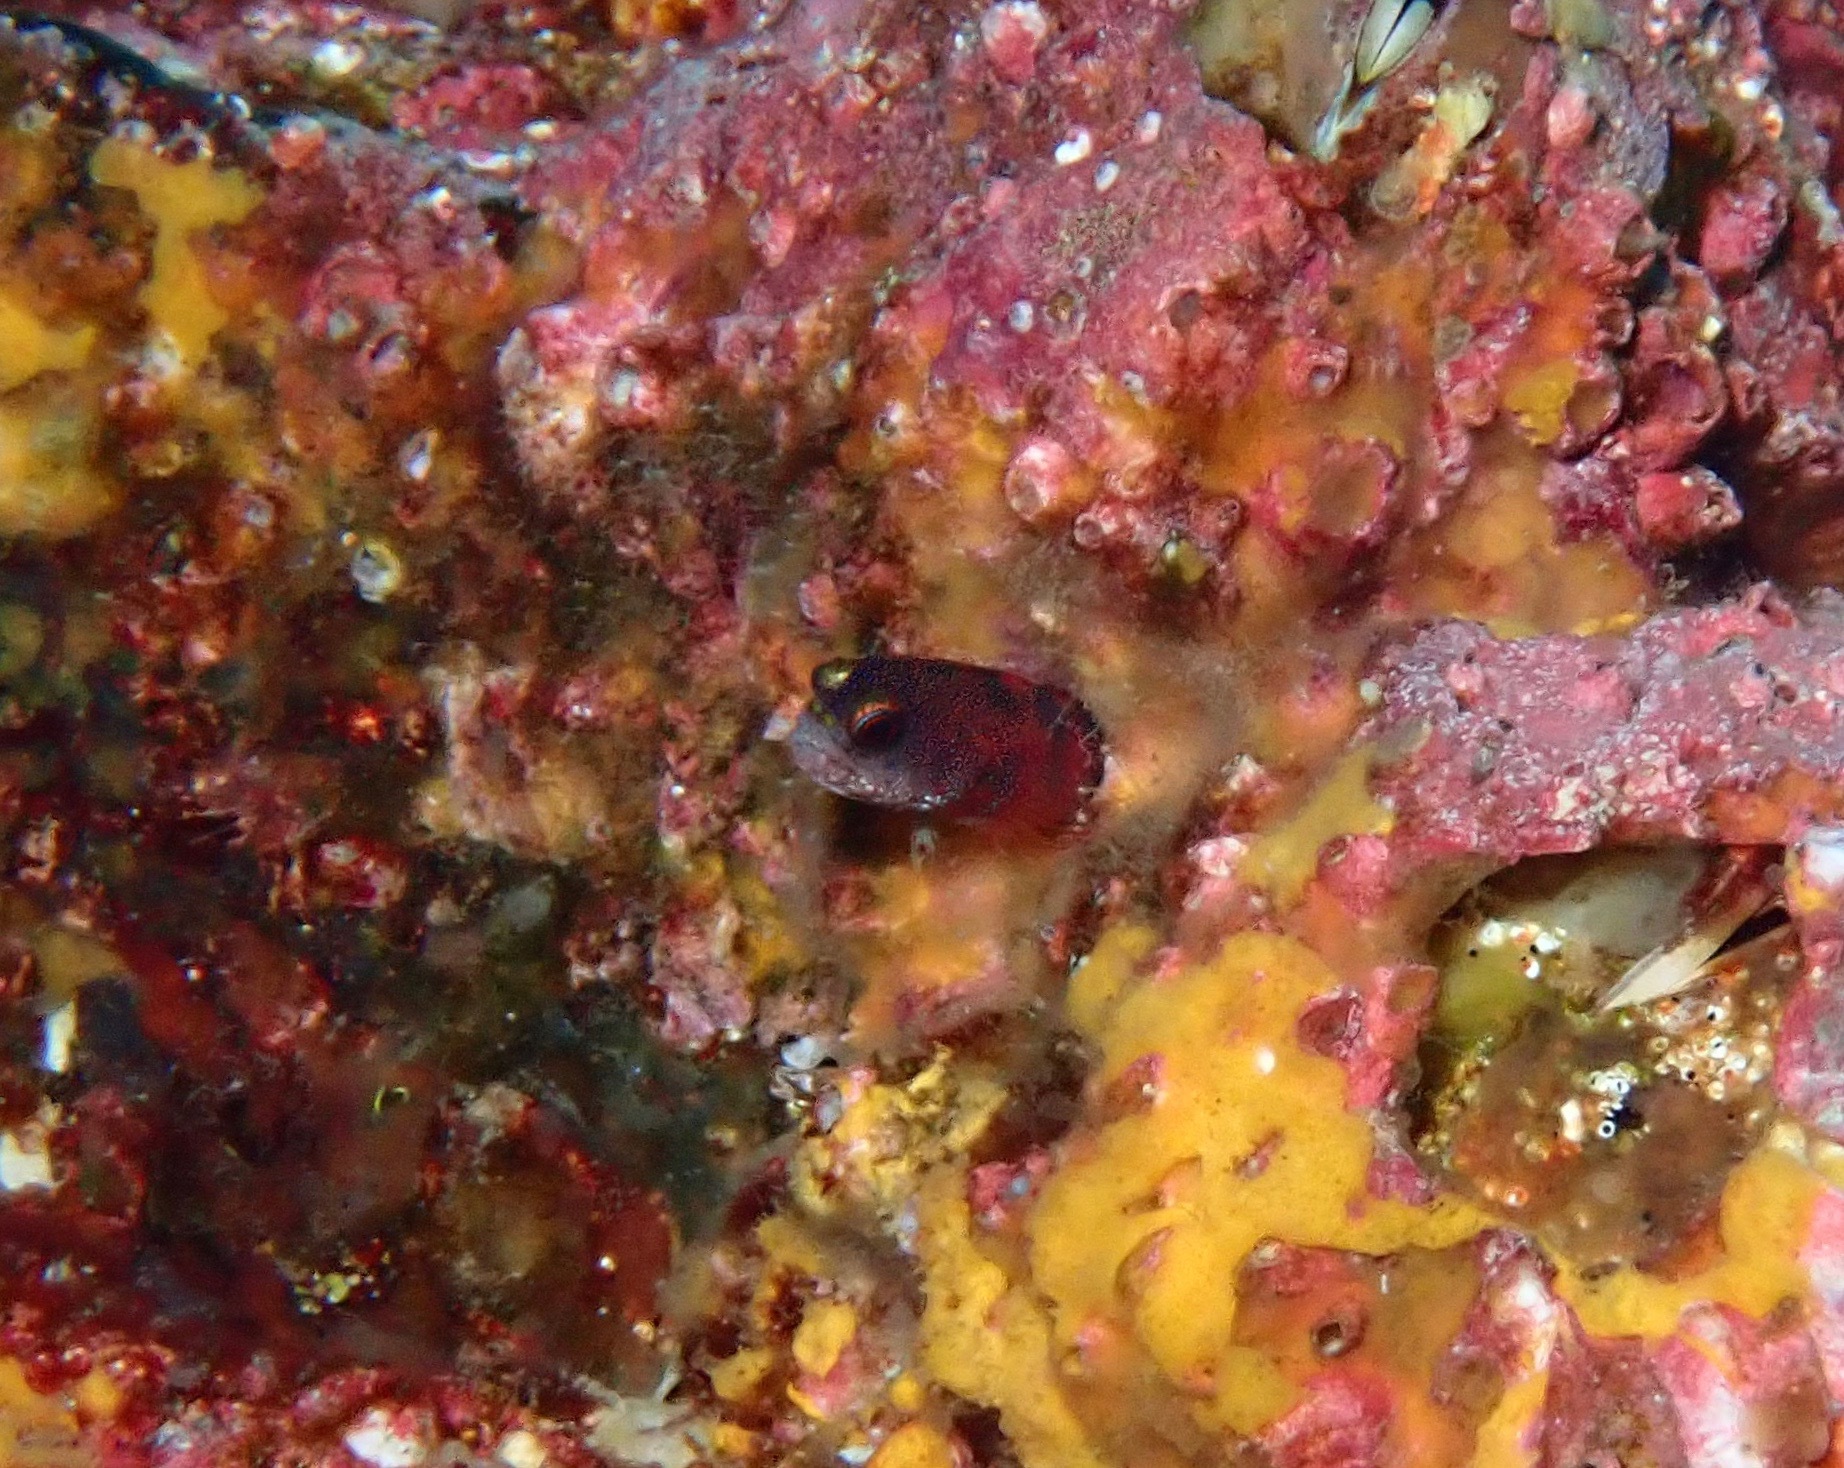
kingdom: Animalia
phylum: Chordata
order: Perciformes
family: Chaenopsidae
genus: Acanthemblemaria
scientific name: Acanthemblemaria castroi
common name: Galápagos barnacle blenny
